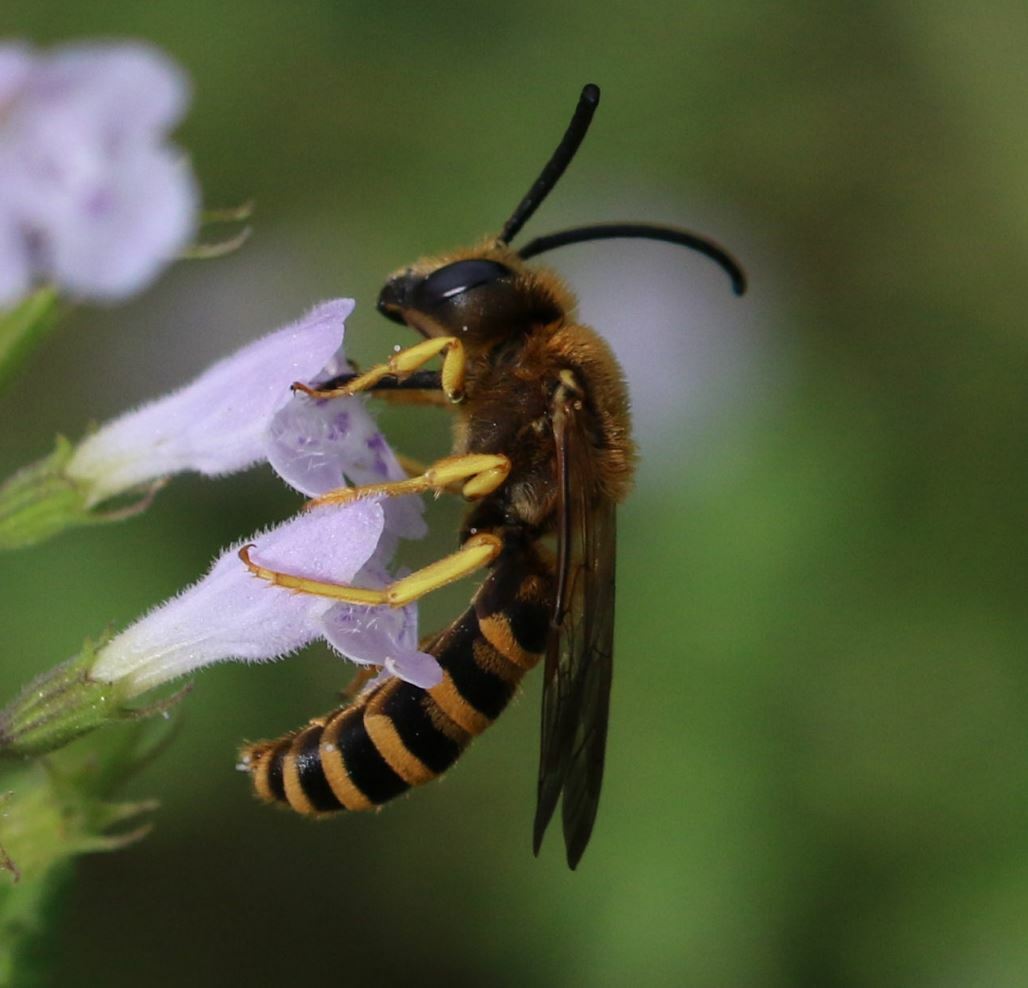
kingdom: Animalia
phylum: Arthropoda
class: Insecta
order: Hymenoptera
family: Halictidae
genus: Halictus
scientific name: Halictus scabiosae
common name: Great banded furrow bee
